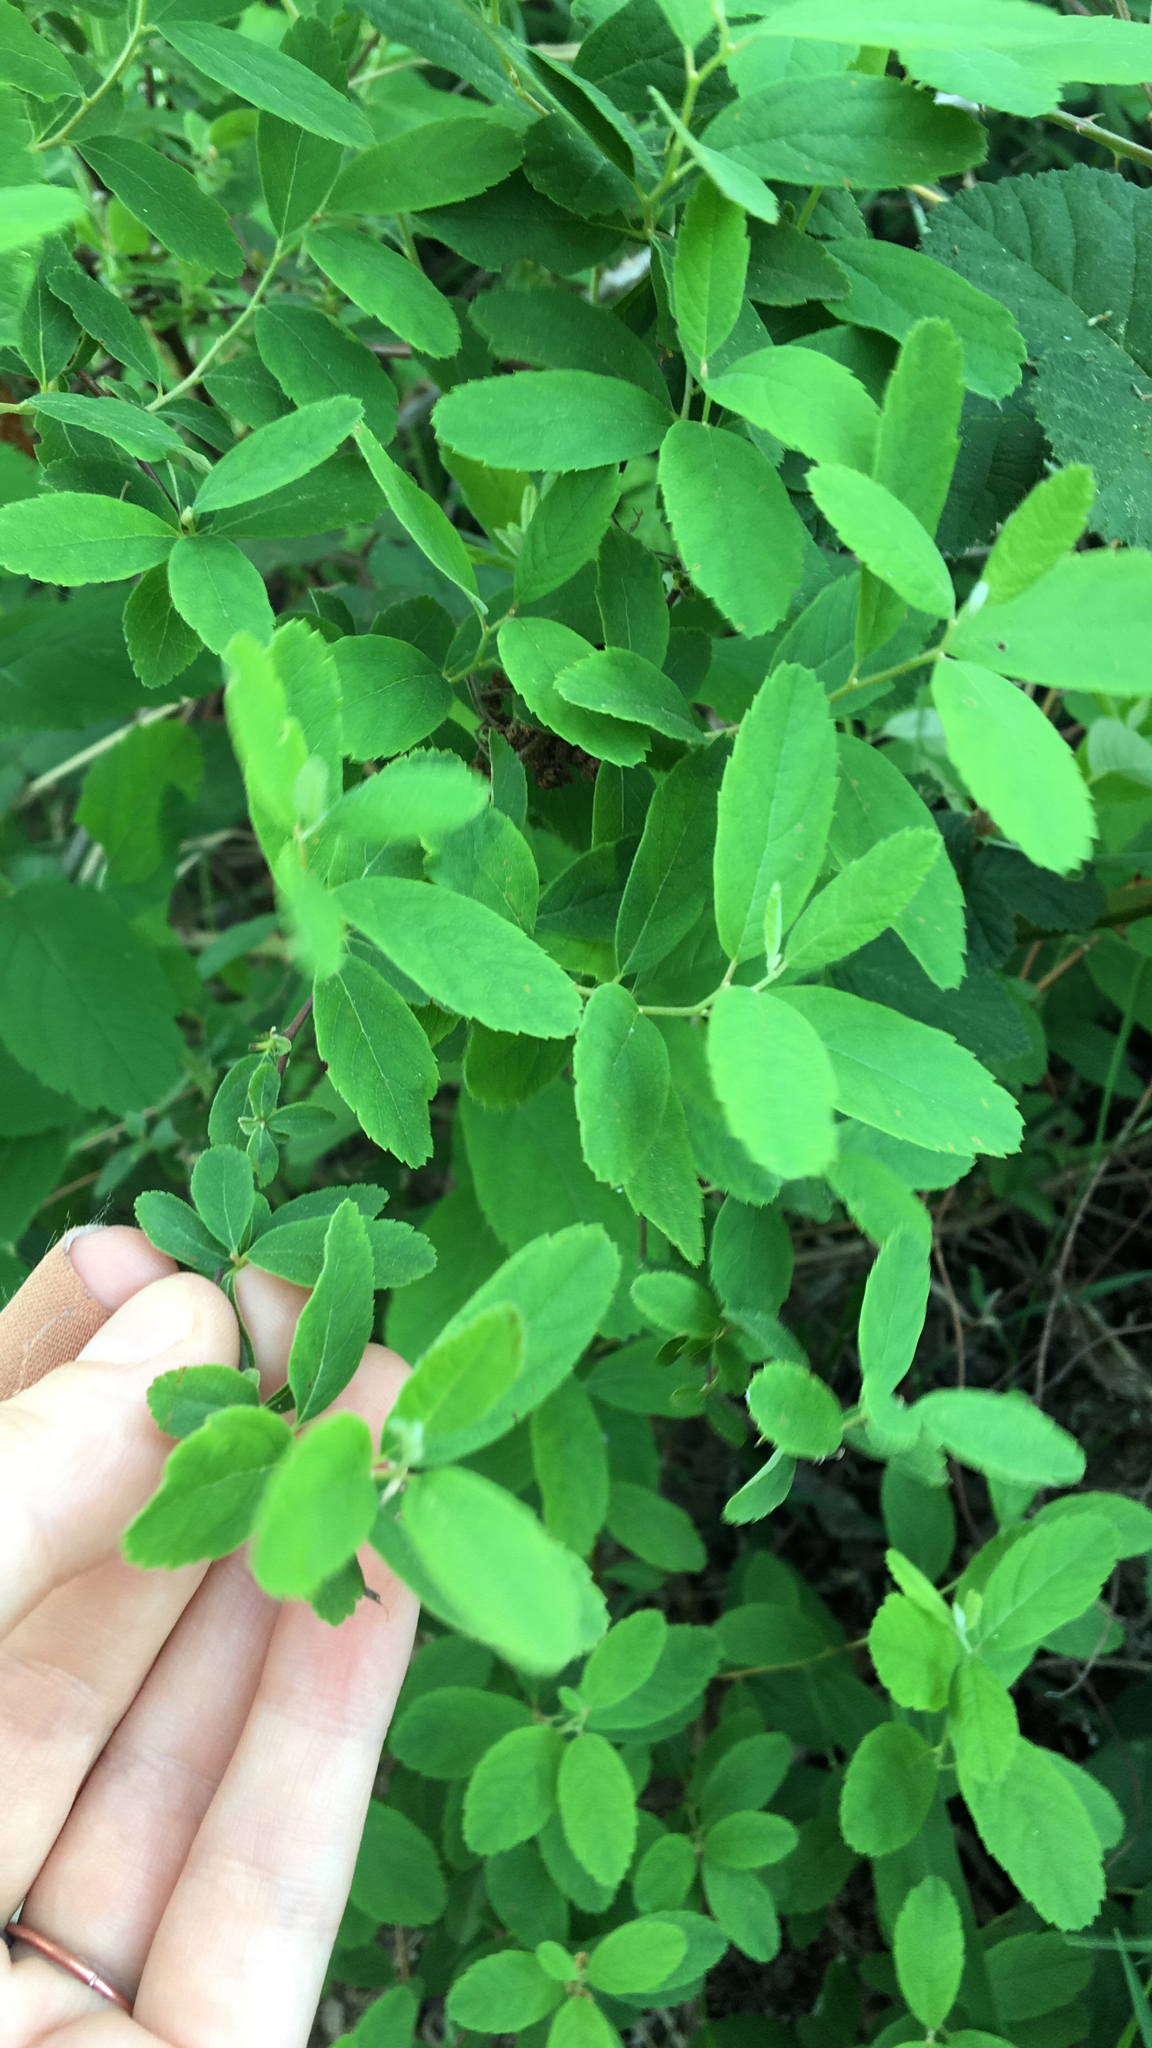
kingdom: Plantae
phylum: Tracheophyta
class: Magnoliopsida
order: Rosales
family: Rosaceae
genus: Spiraea
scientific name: Spiraea douglasii
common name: Steeplebush
